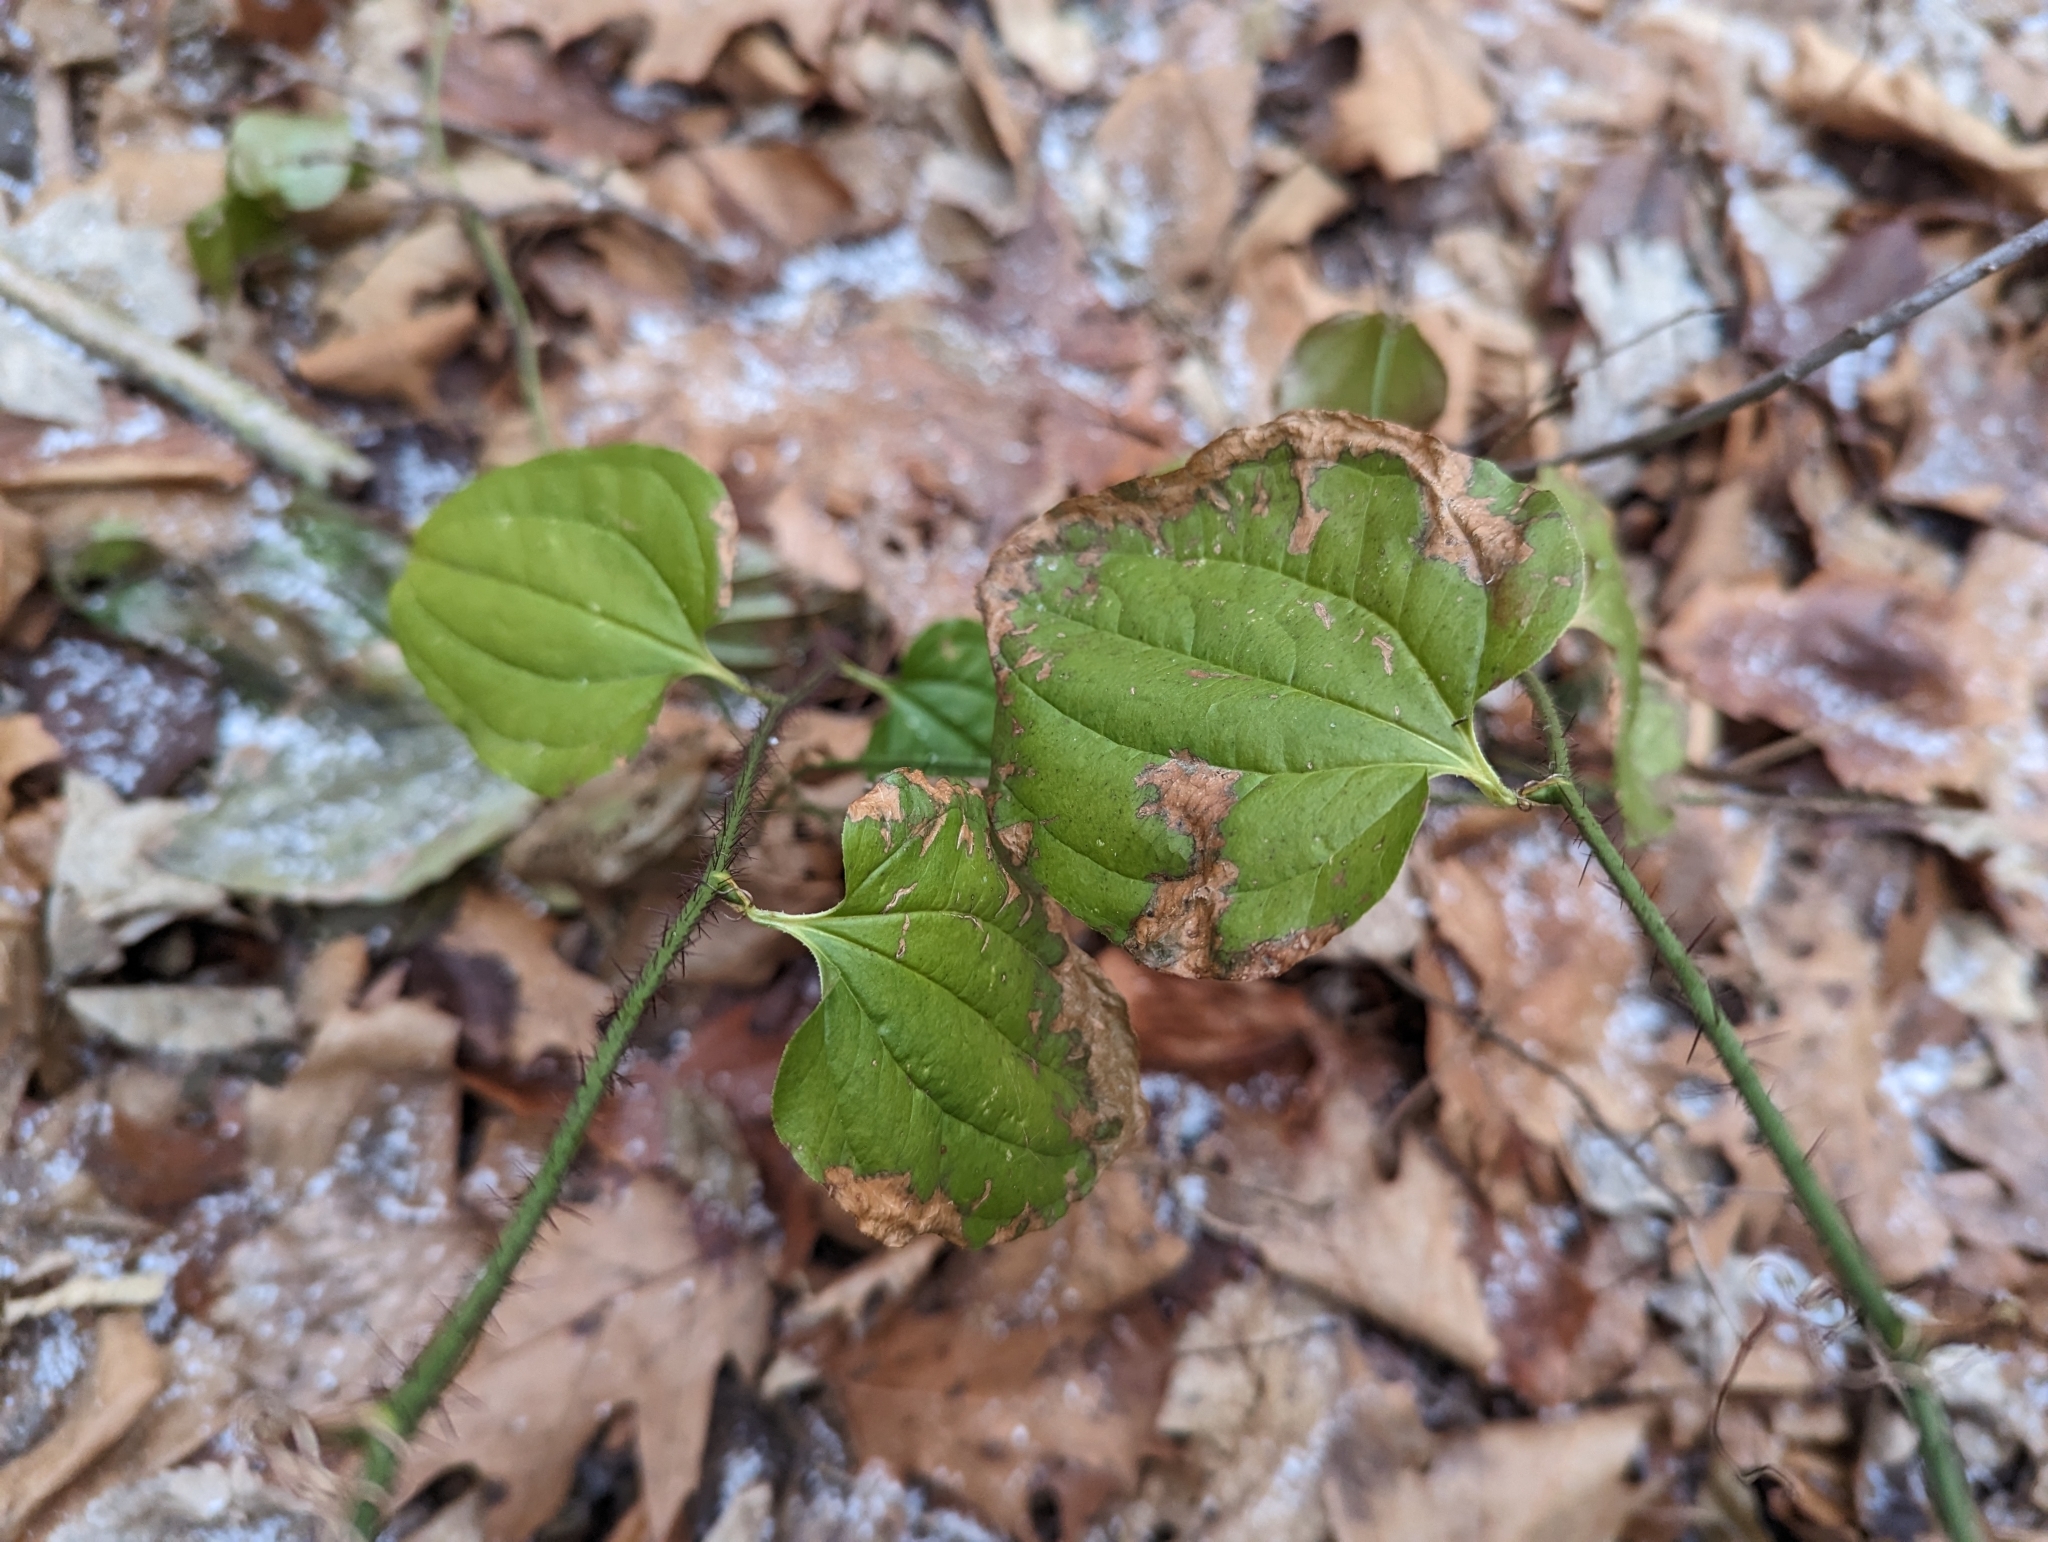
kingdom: Plantae
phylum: Tracheophyta
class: Liliopsida
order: Liliales
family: Smilacaceae
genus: Smilax
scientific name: Smilax tamnoides
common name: Hellfetter
